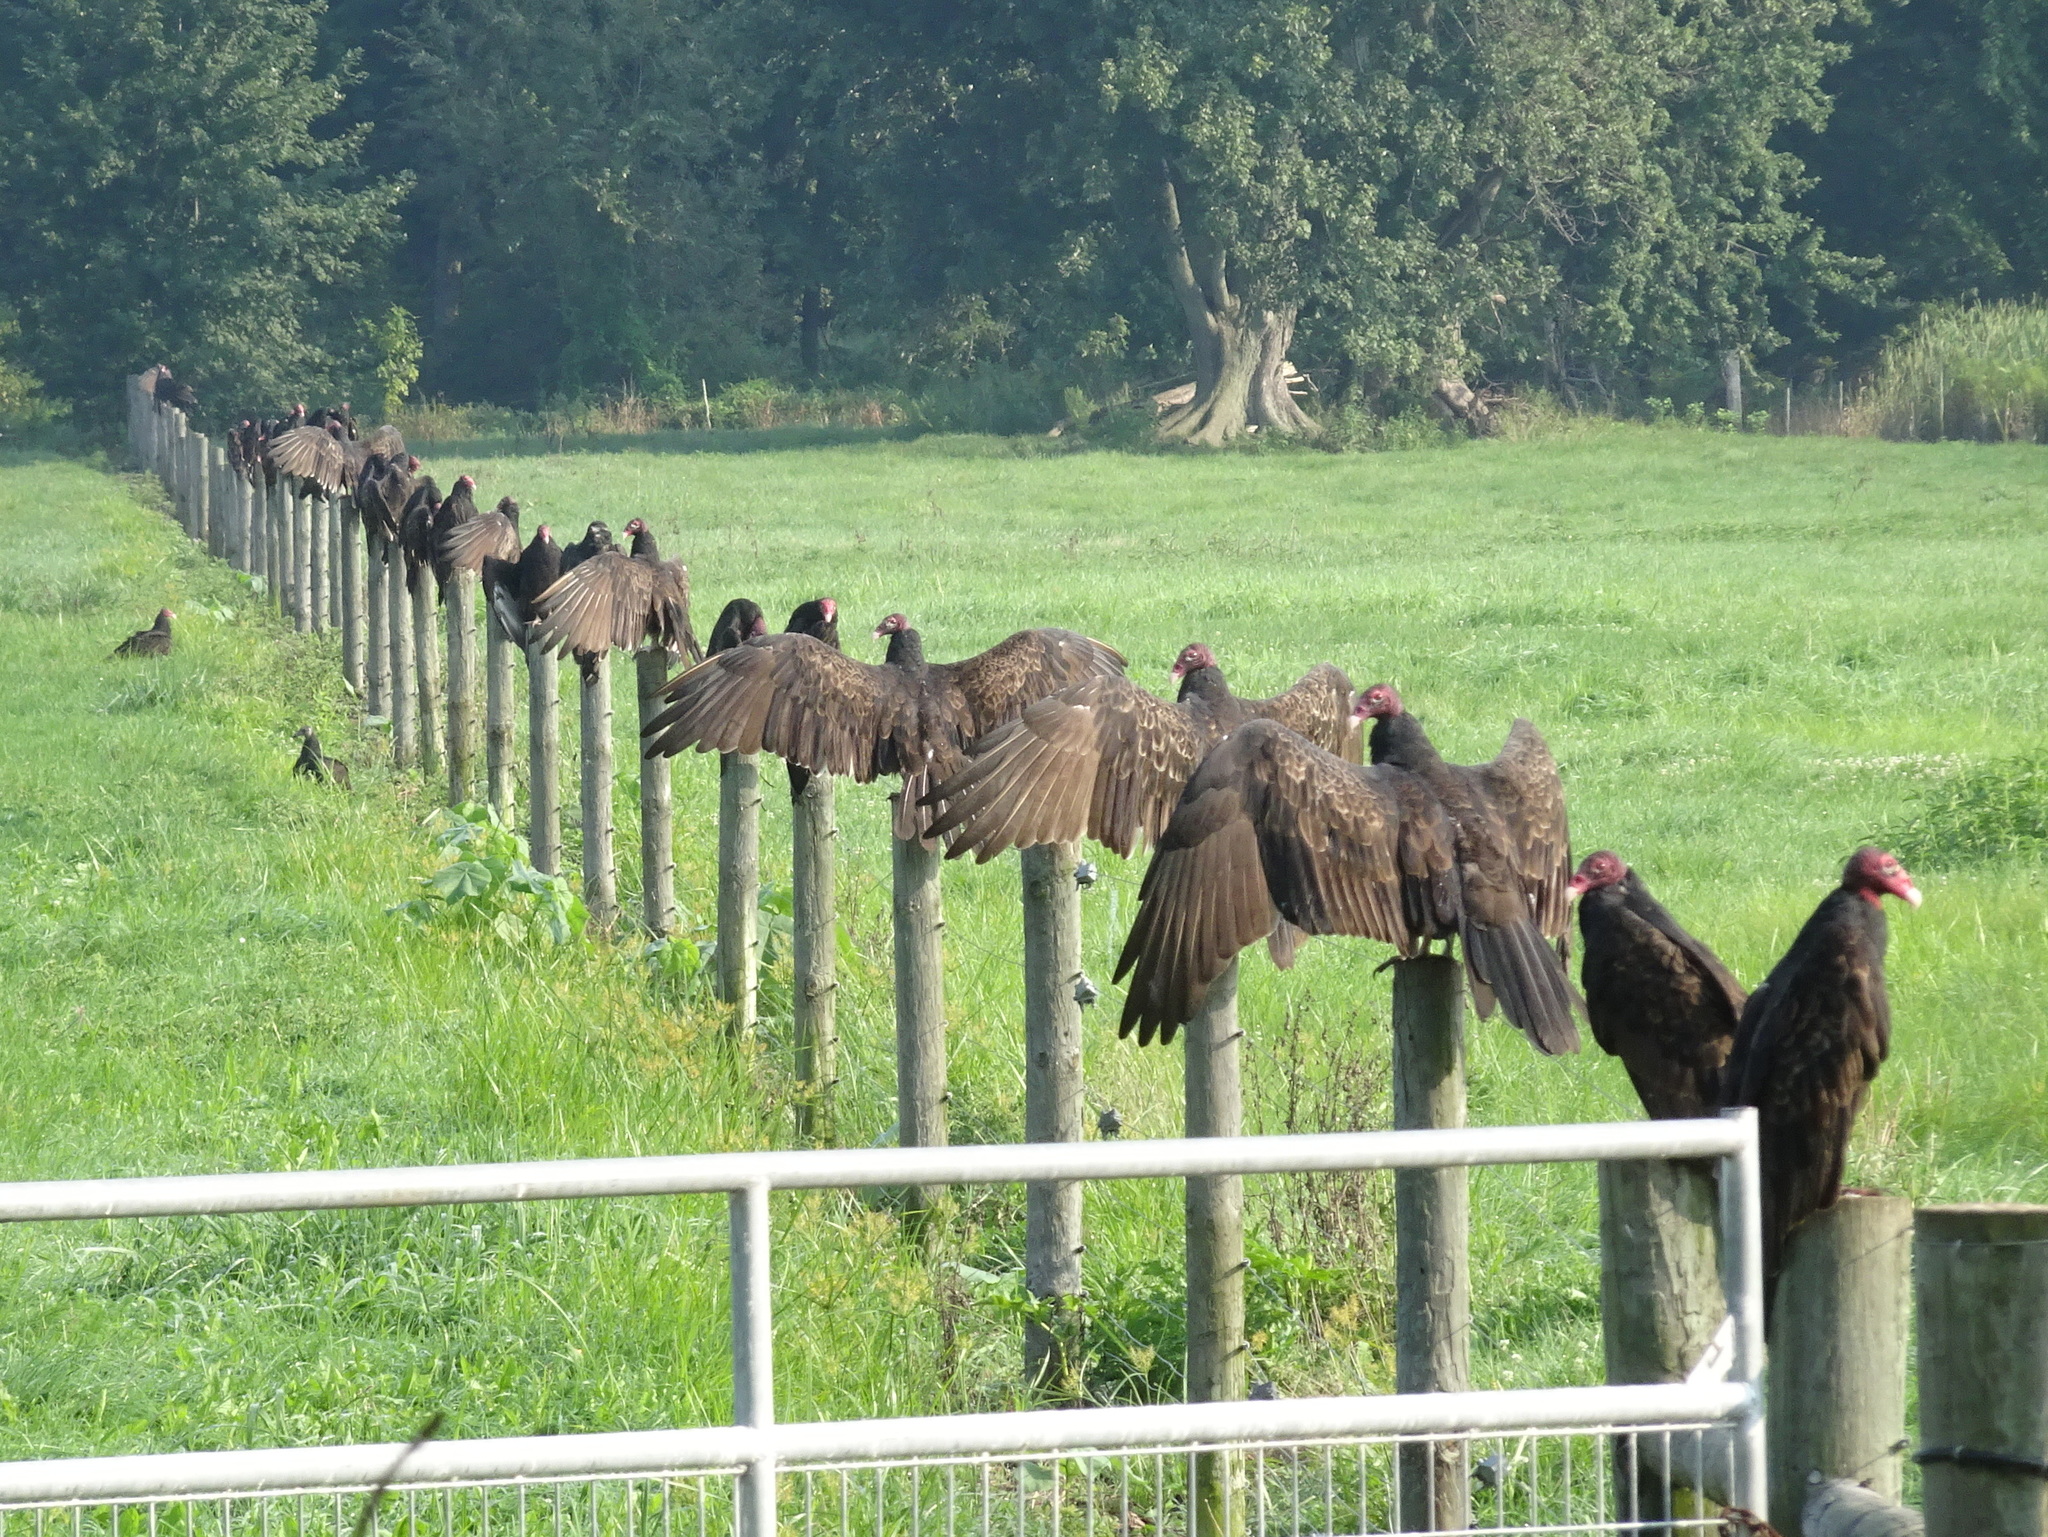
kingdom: Animalia
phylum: Chordata
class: Aves
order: Accipitriformes
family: Cathartidae
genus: Cathartes
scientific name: Cathartes aura
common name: Turkey vulture
